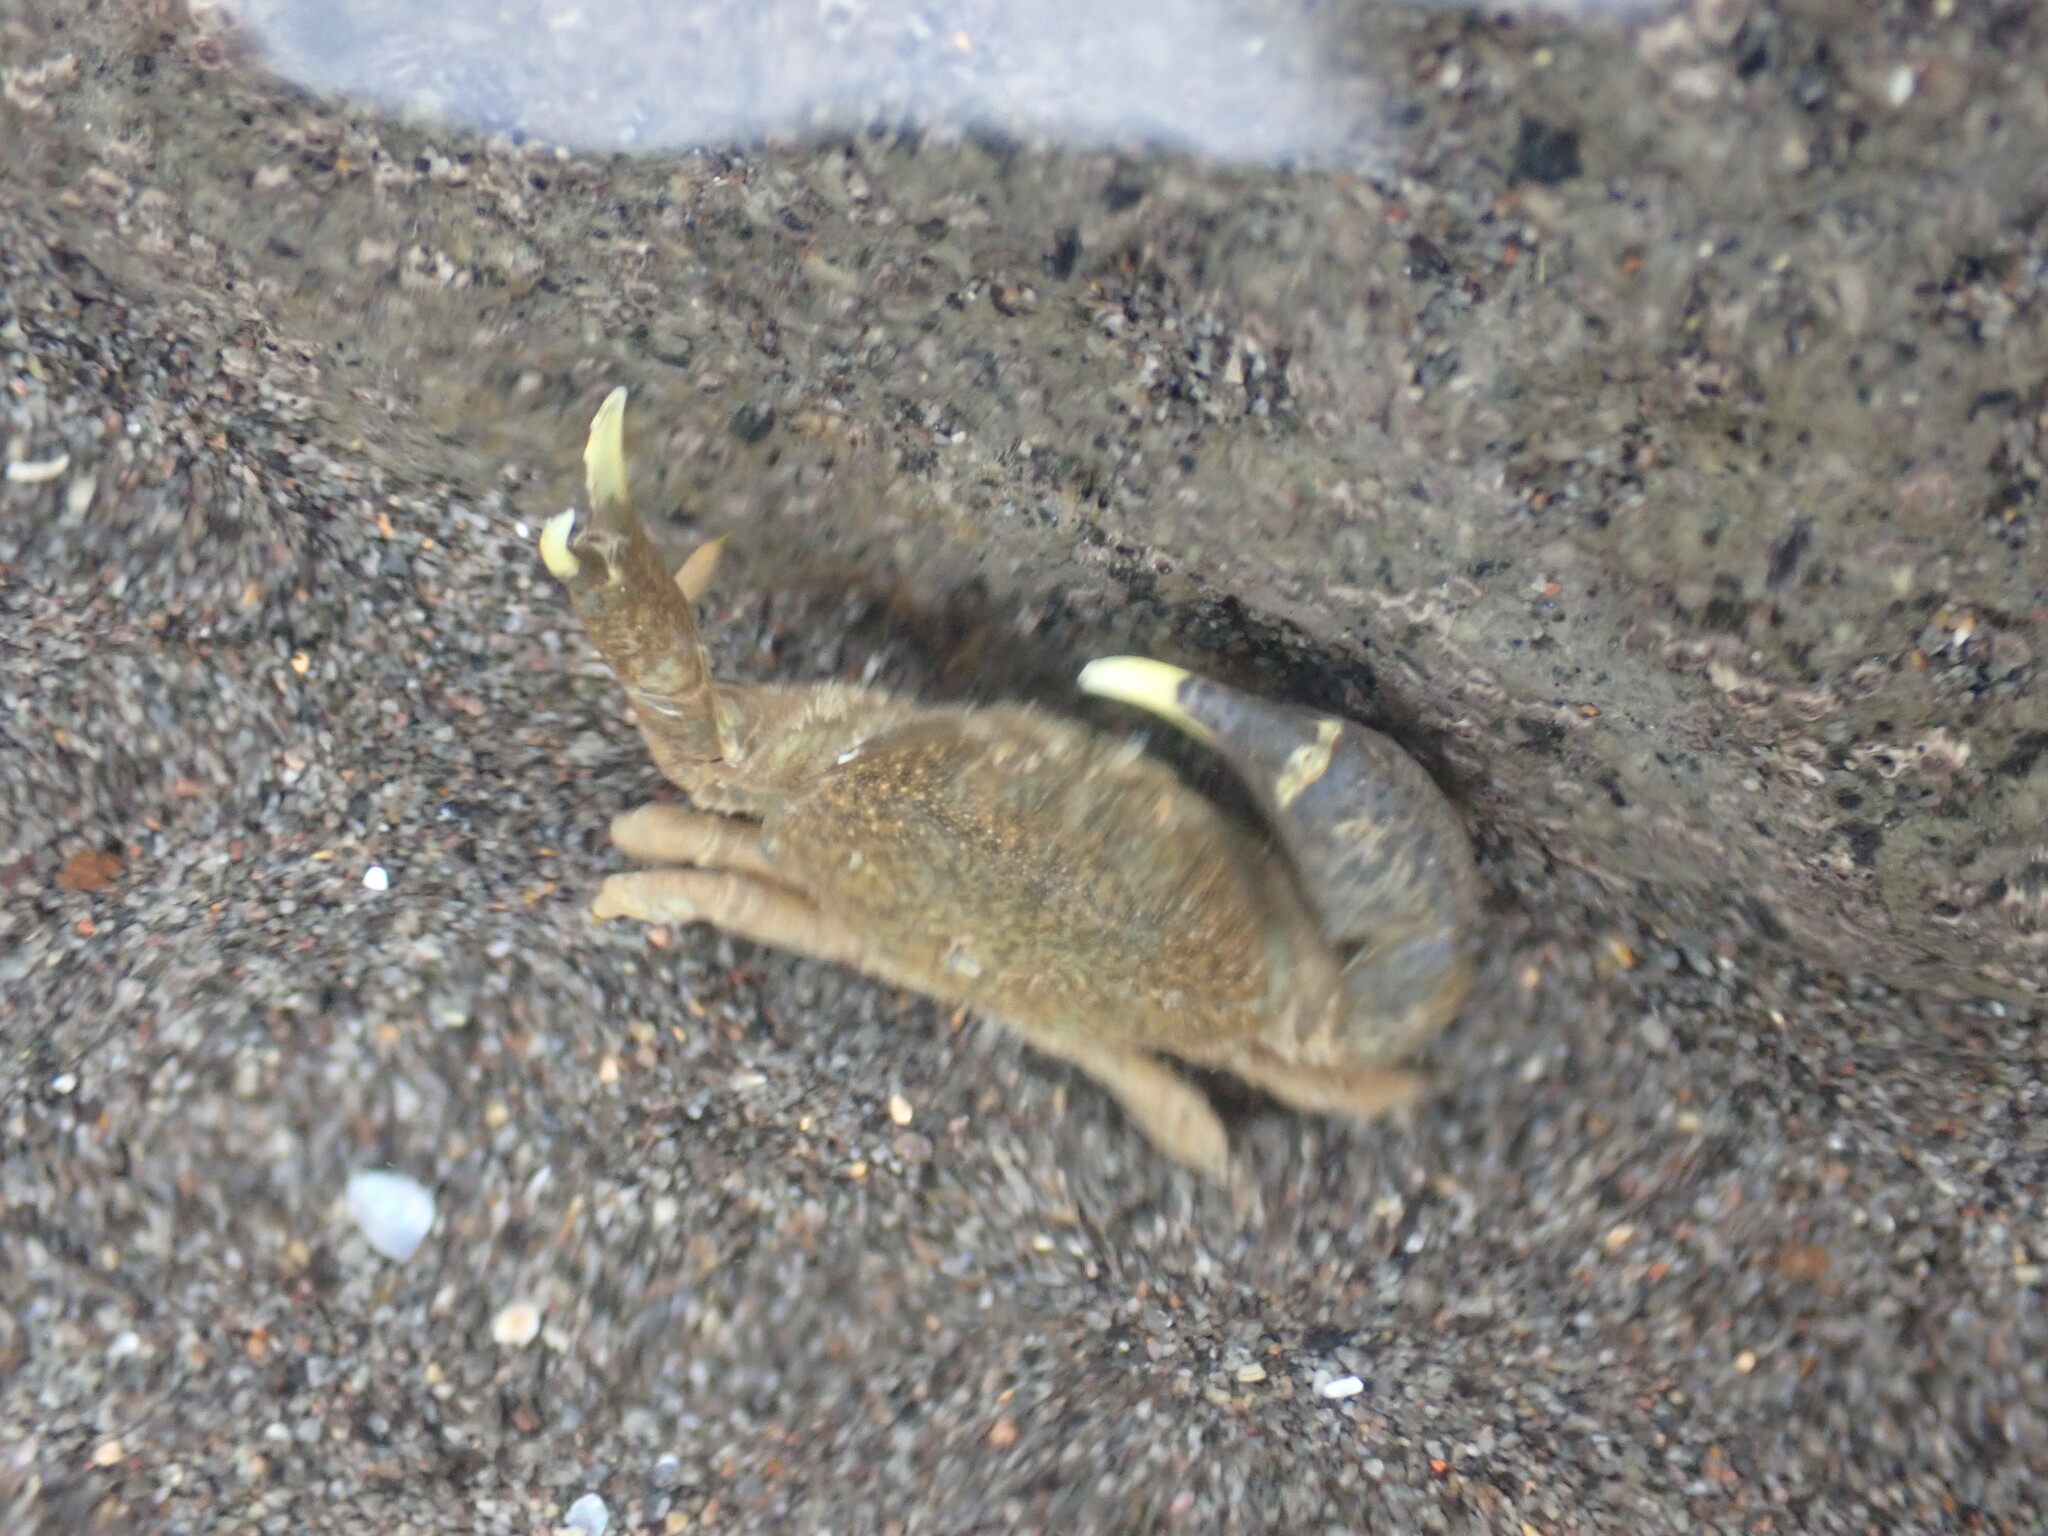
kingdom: Animalia
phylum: Arthropoda
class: Malacostraca
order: Decapoda
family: Heteroziidae
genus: Heterozius
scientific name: Heterozius rotundifrons
